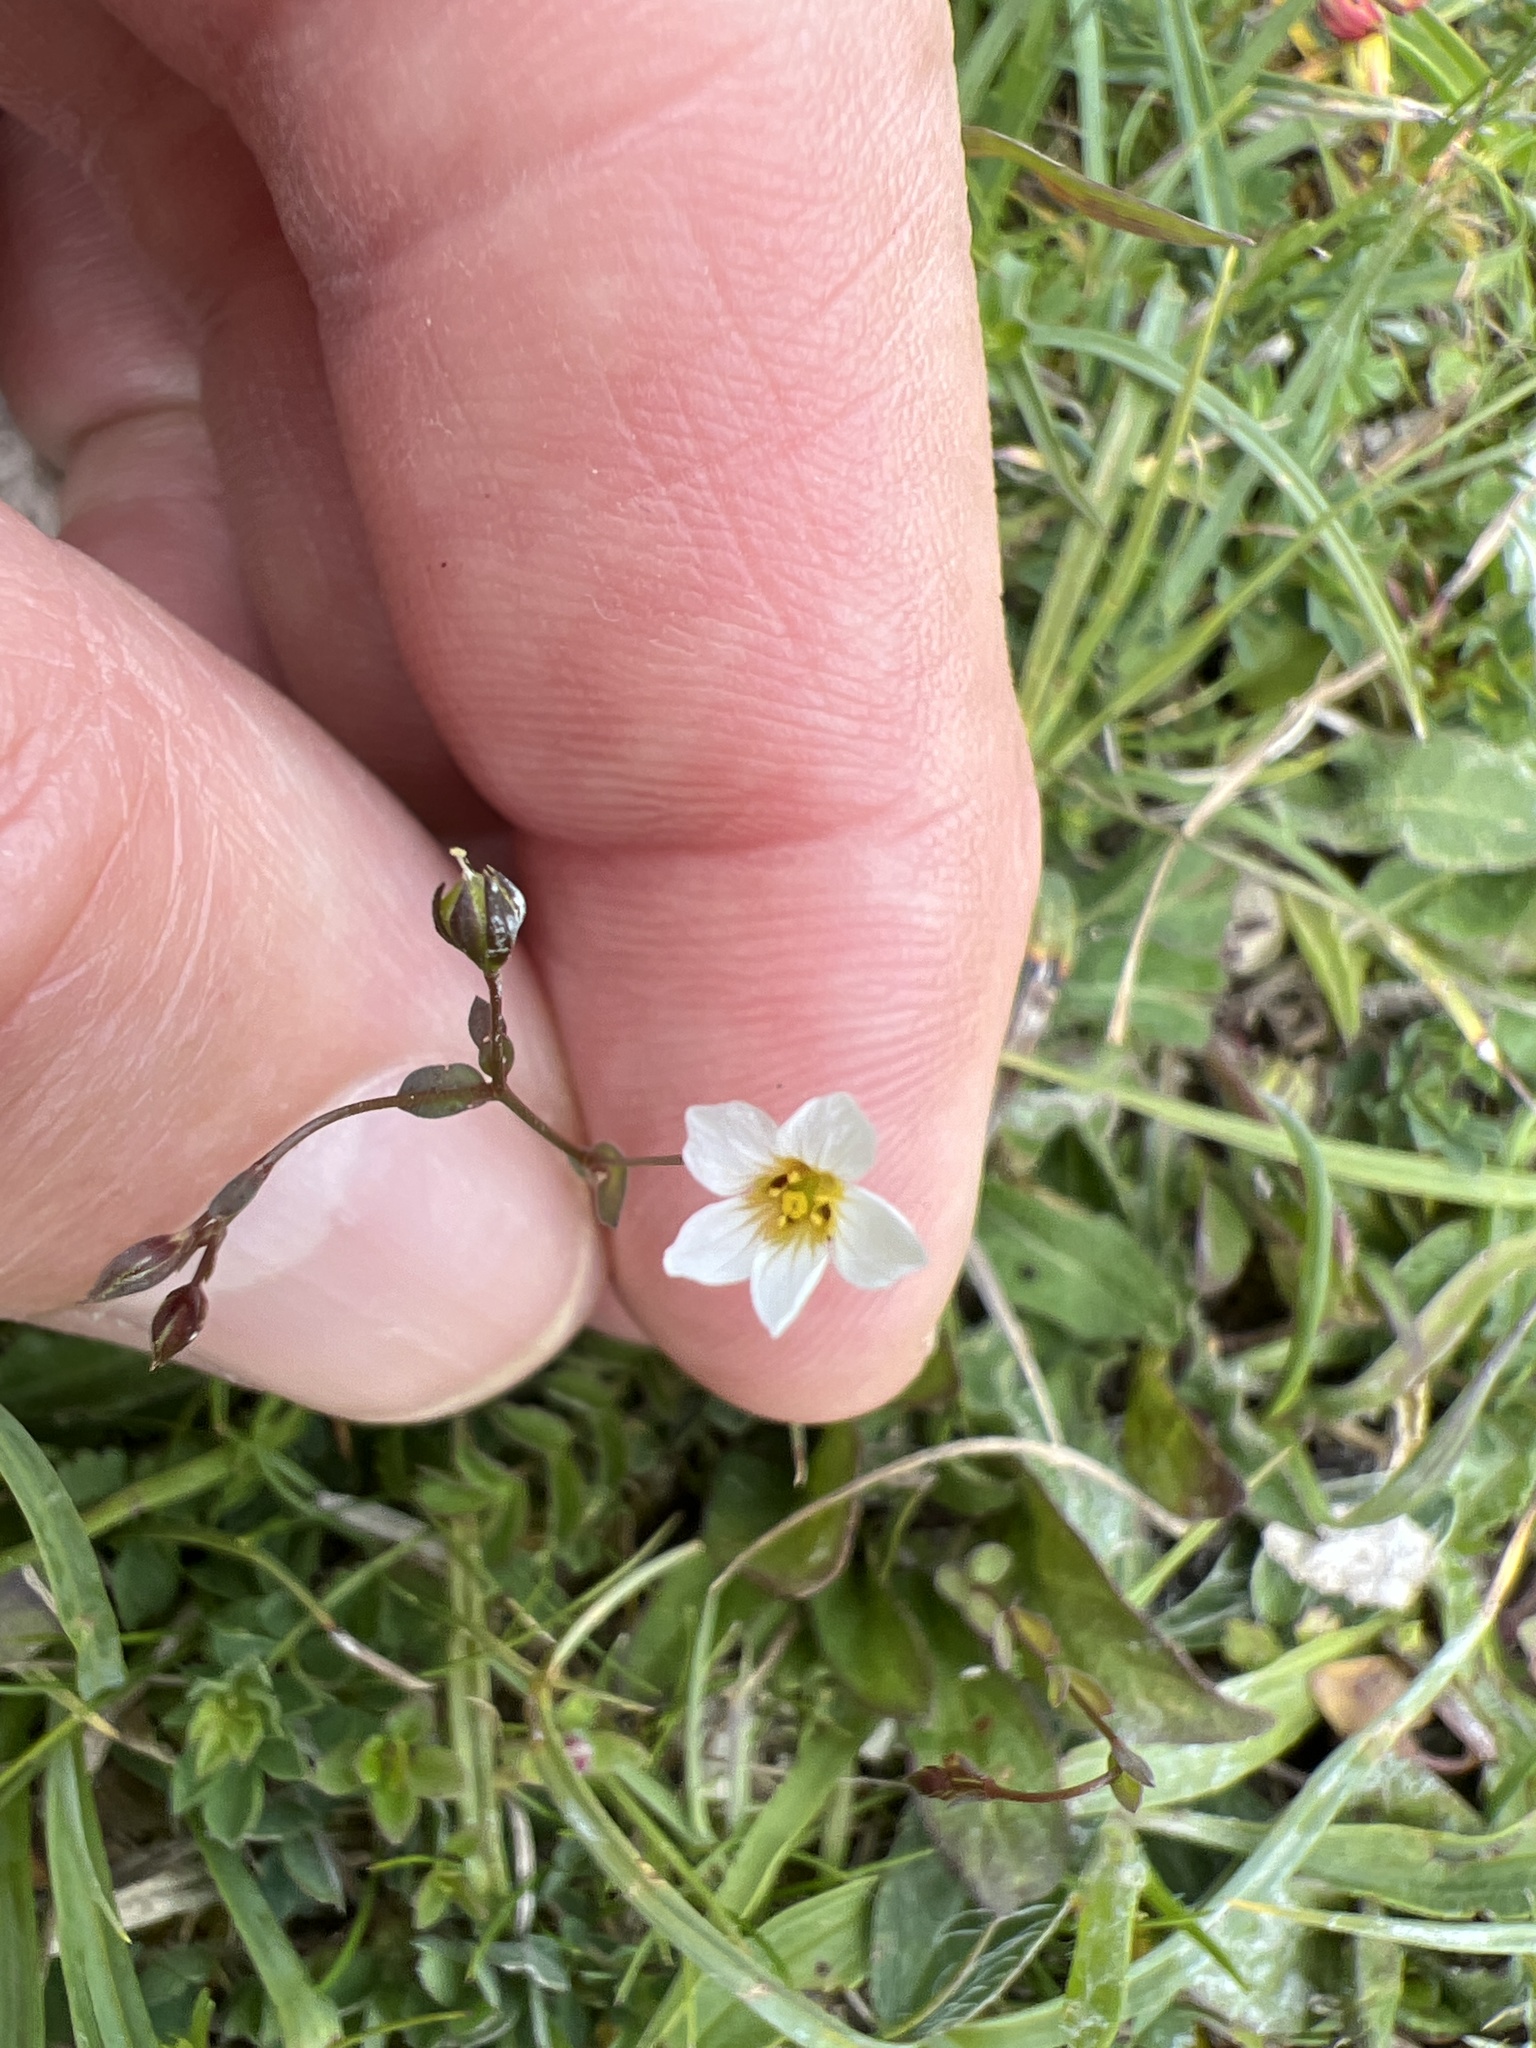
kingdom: Plantae
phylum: Tracheophyta
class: Magnoliopsida
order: Malpighiales
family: Linaceae
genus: Linum
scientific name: Linum catharticum
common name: Fairy flax
